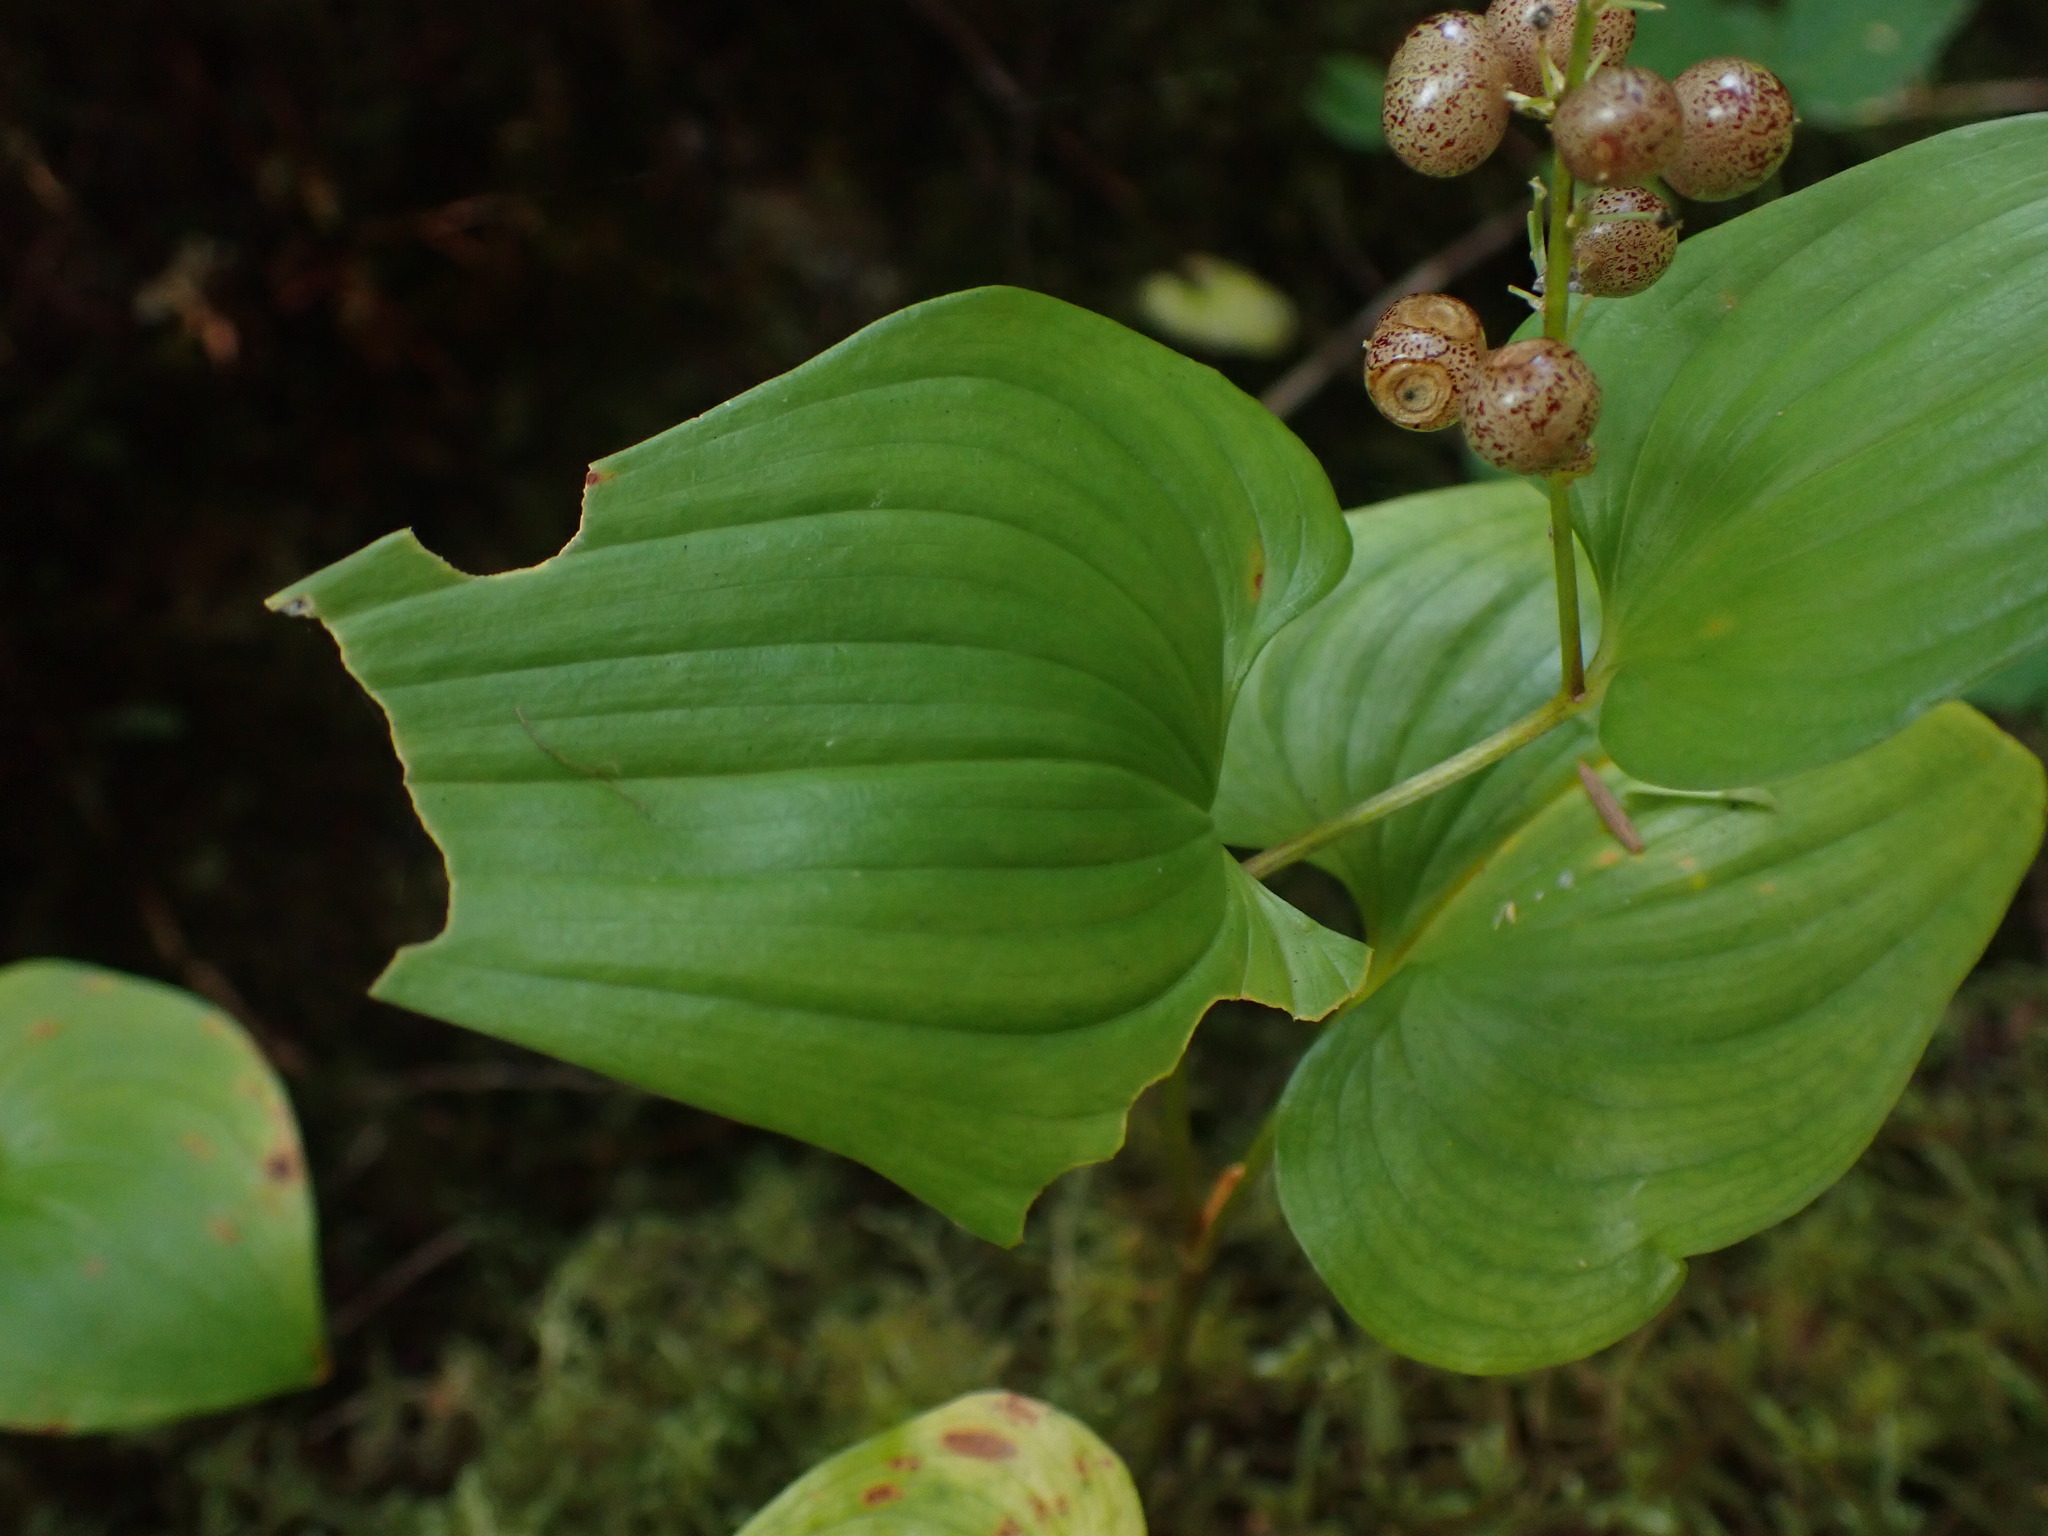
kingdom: Plantae
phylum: Tracheophyta
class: Liliopsida
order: Asparagales
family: Asparagaceae
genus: Maianthemum
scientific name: Maianthemum dilatatum
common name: False lily-of-the-valley
